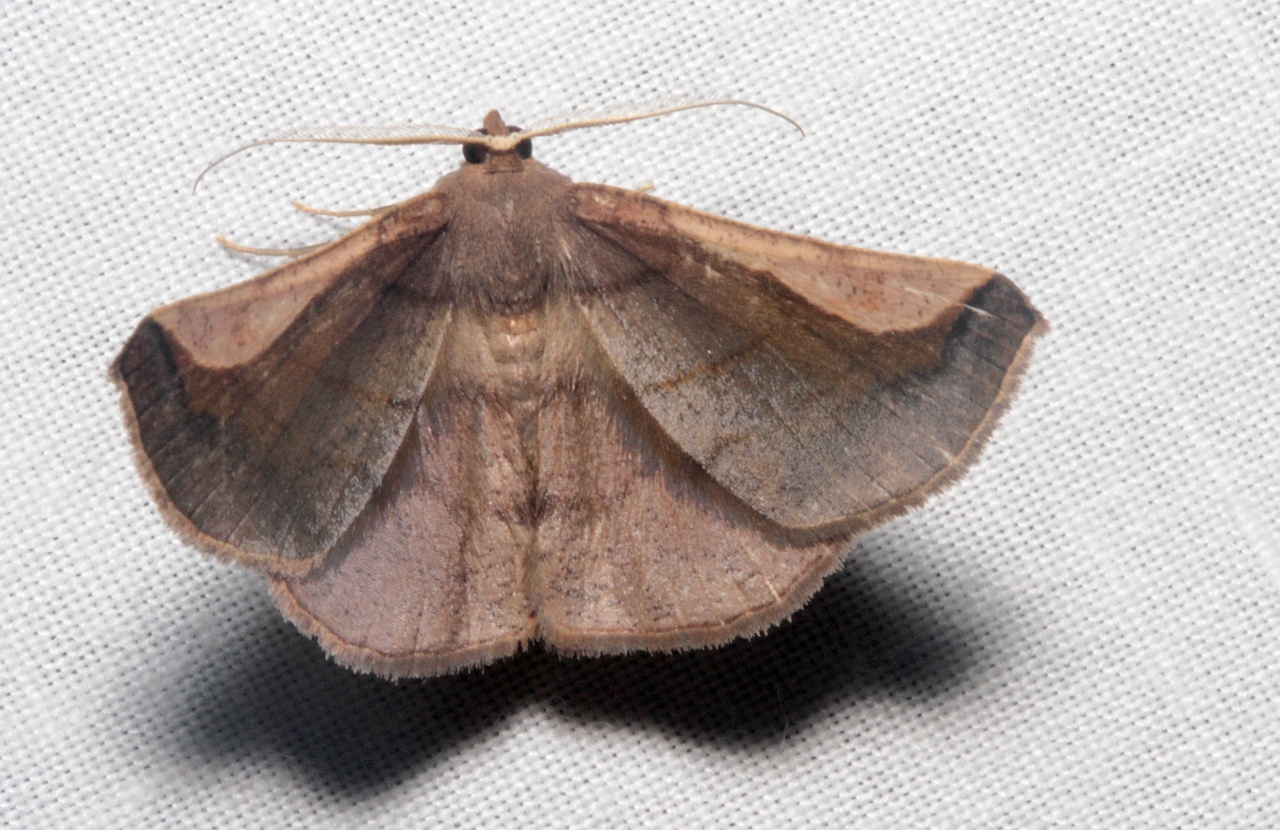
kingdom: Animalia
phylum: Arthropoda
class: Insecta
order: Lepidoptera
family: Geometridae
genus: Sphacelodes
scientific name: Sphacelodes quadrilineata
